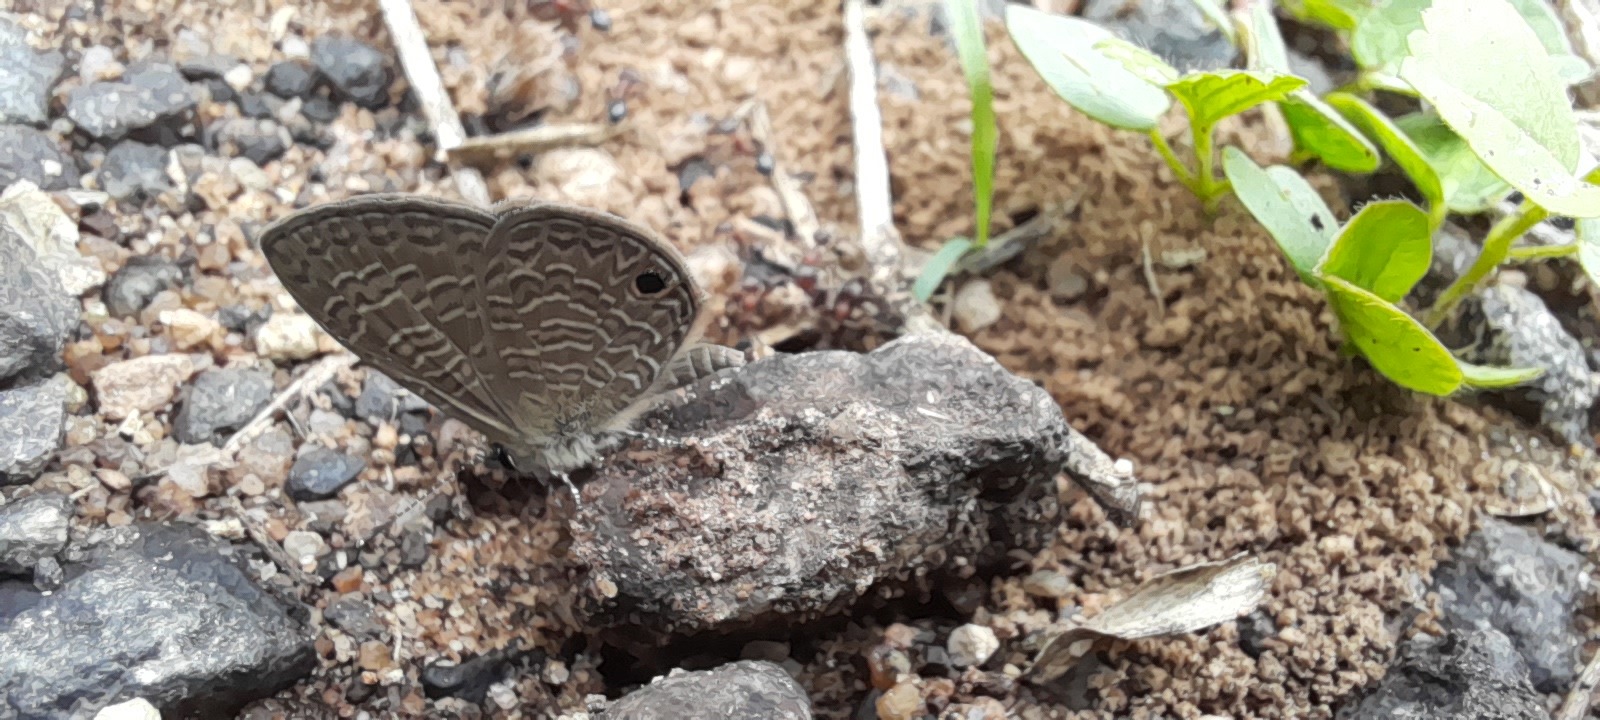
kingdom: Animalia
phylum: Arthropoda
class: Insecta
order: Lepidoptera
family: Lycaenidae
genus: Prosotas
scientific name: Prosotas dubiosa
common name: Tailless lineblue
